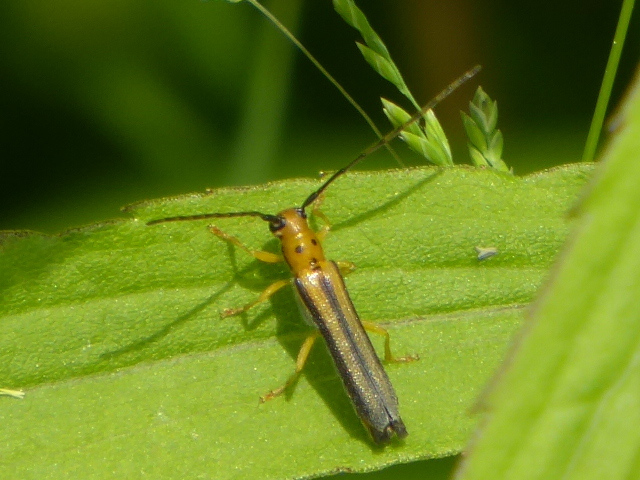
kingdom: Animalia
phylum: Arthropoda
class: Insecta
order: Coleoptera
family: Cerambycidae
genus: Oberea
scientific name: Oberea tripunctata
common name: Dogwood twig borer
